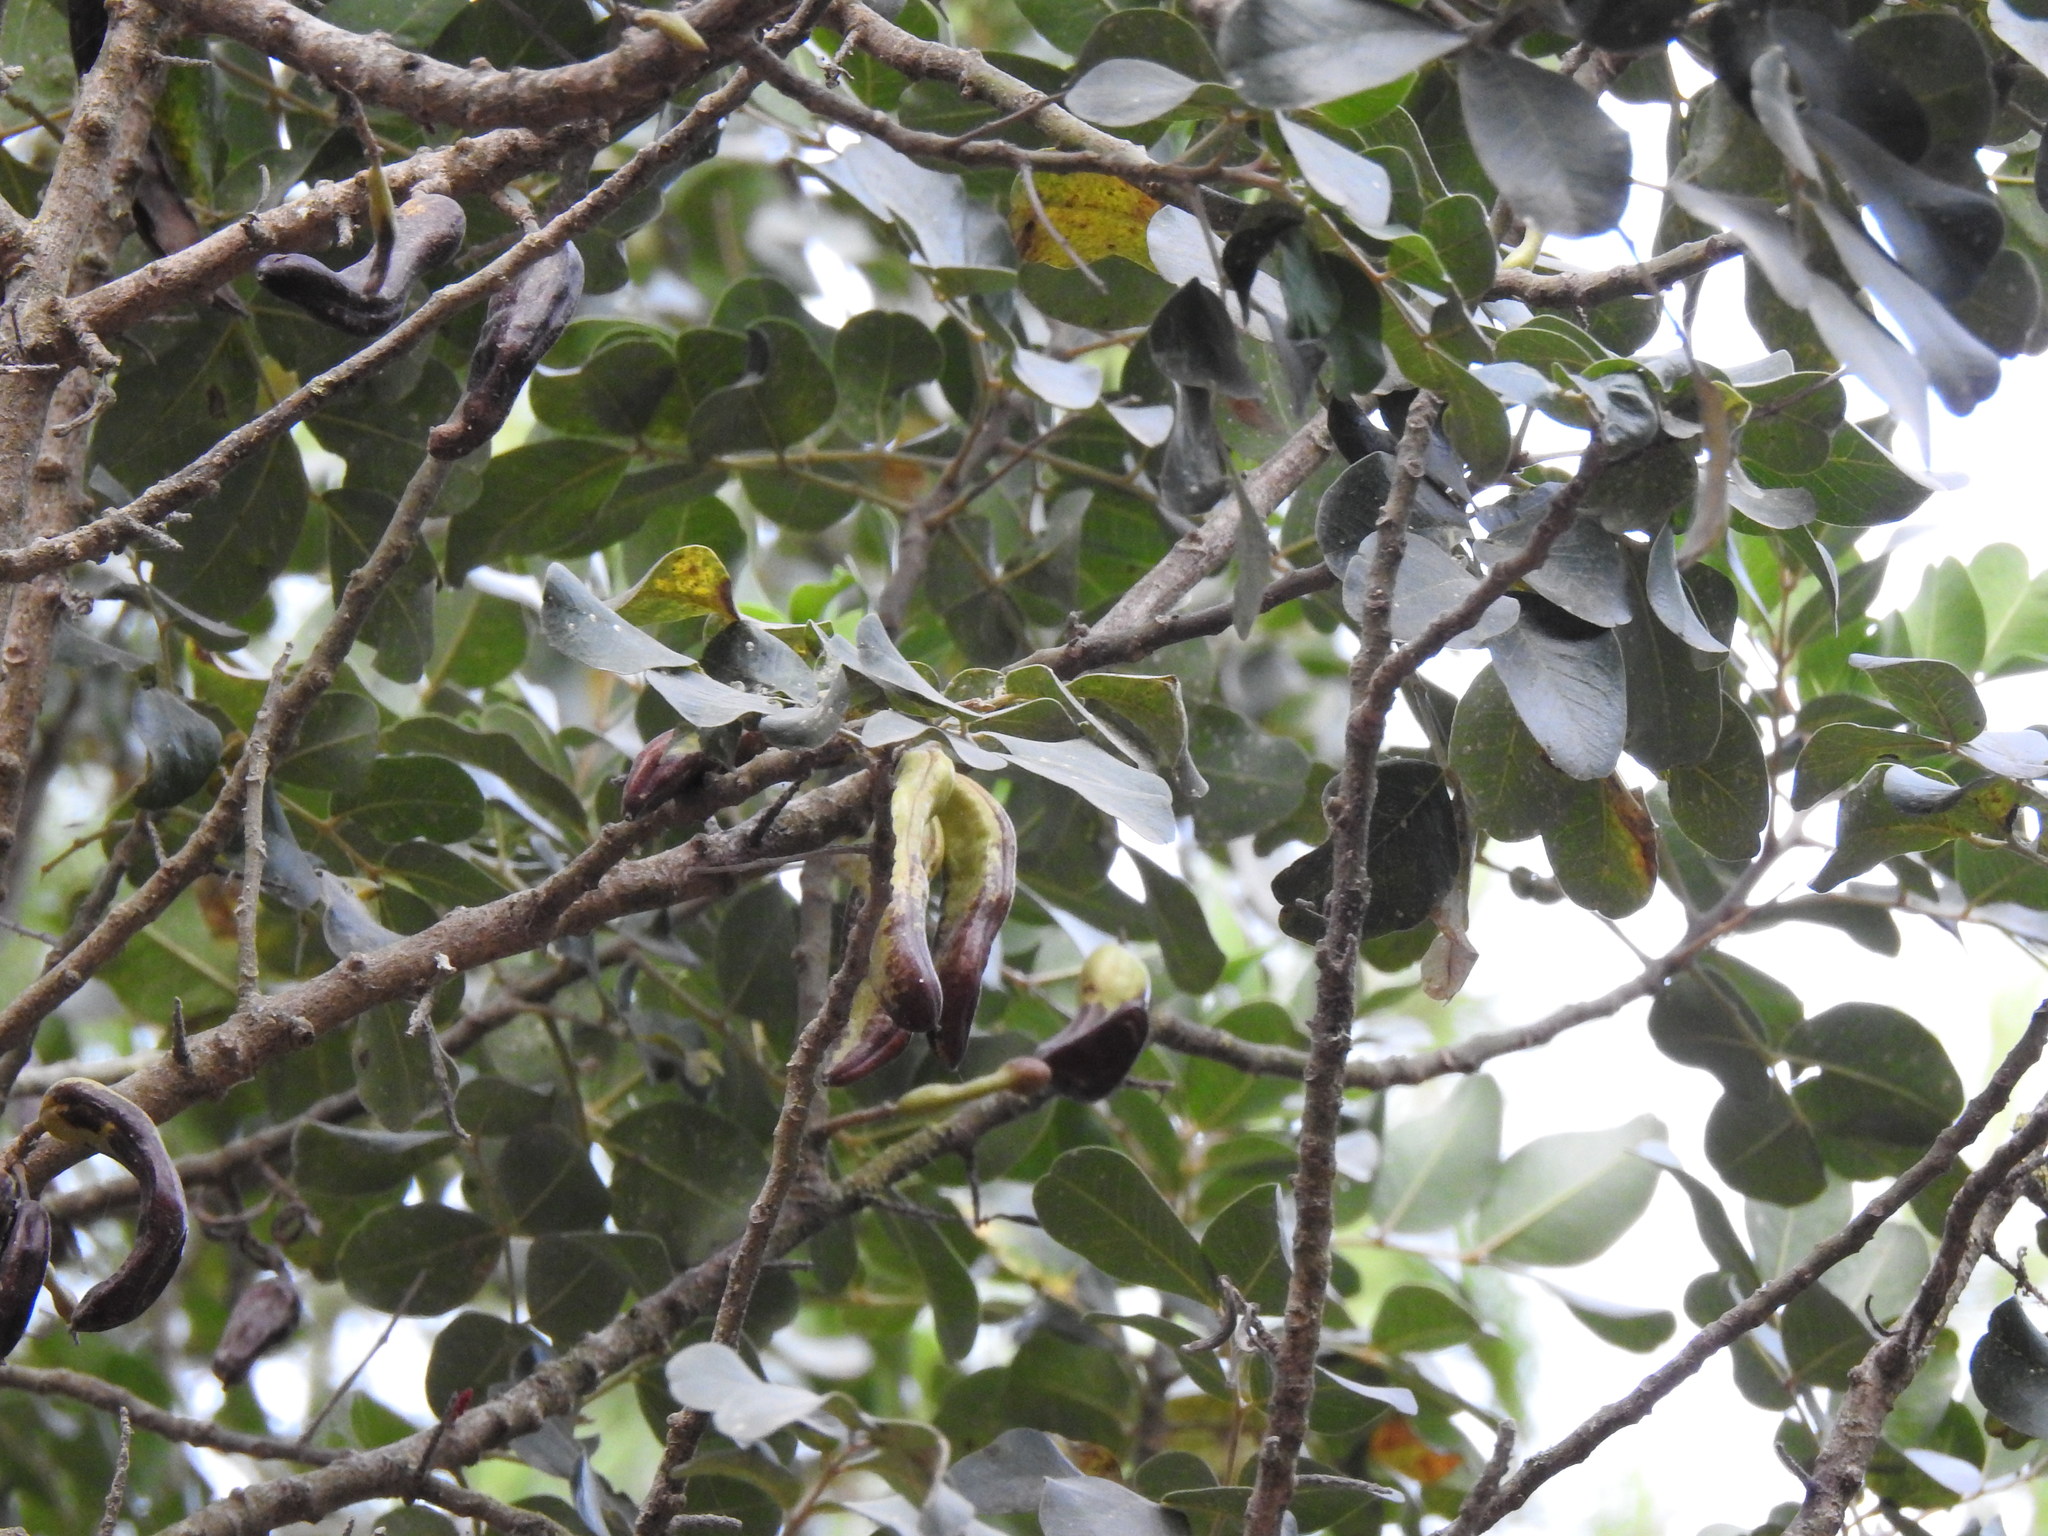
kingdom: Plantae
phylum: Tracheophyta
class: Magnoliopsida
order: Fabales
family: Fabaceae
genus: Ceratonia
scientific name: Ceratonia siliqua
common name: Carob
